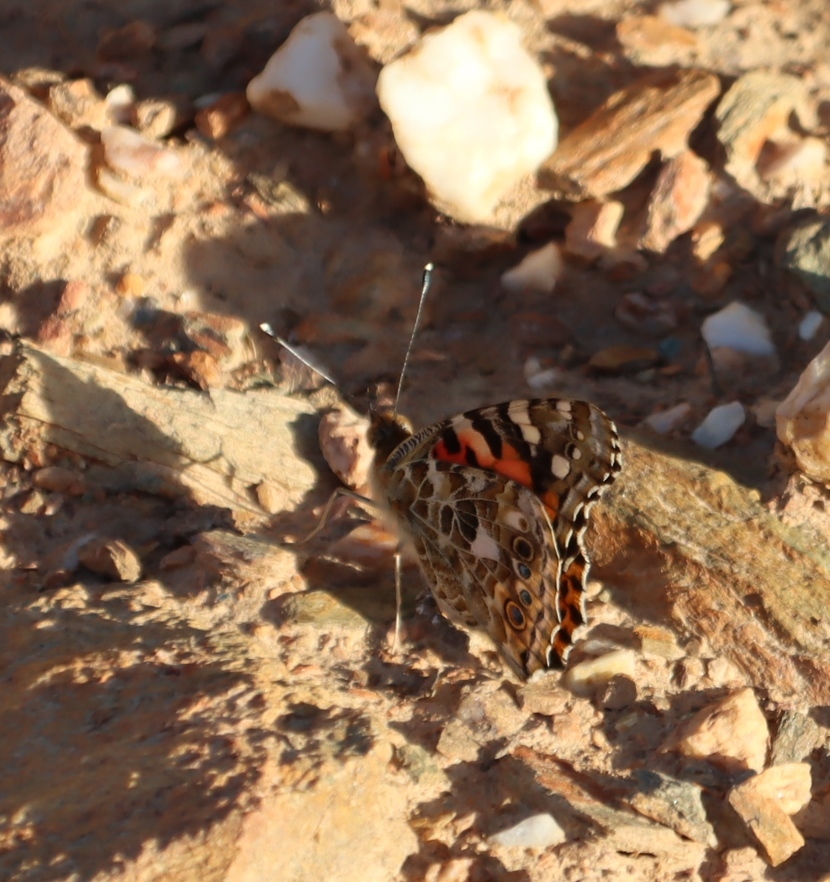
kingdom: Animalia
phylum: Arthropoda
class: Insecta
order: Lepidoptera
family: Nymphalidae
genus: Vanessa
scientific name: Vanessa cardui
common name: Painted lady
